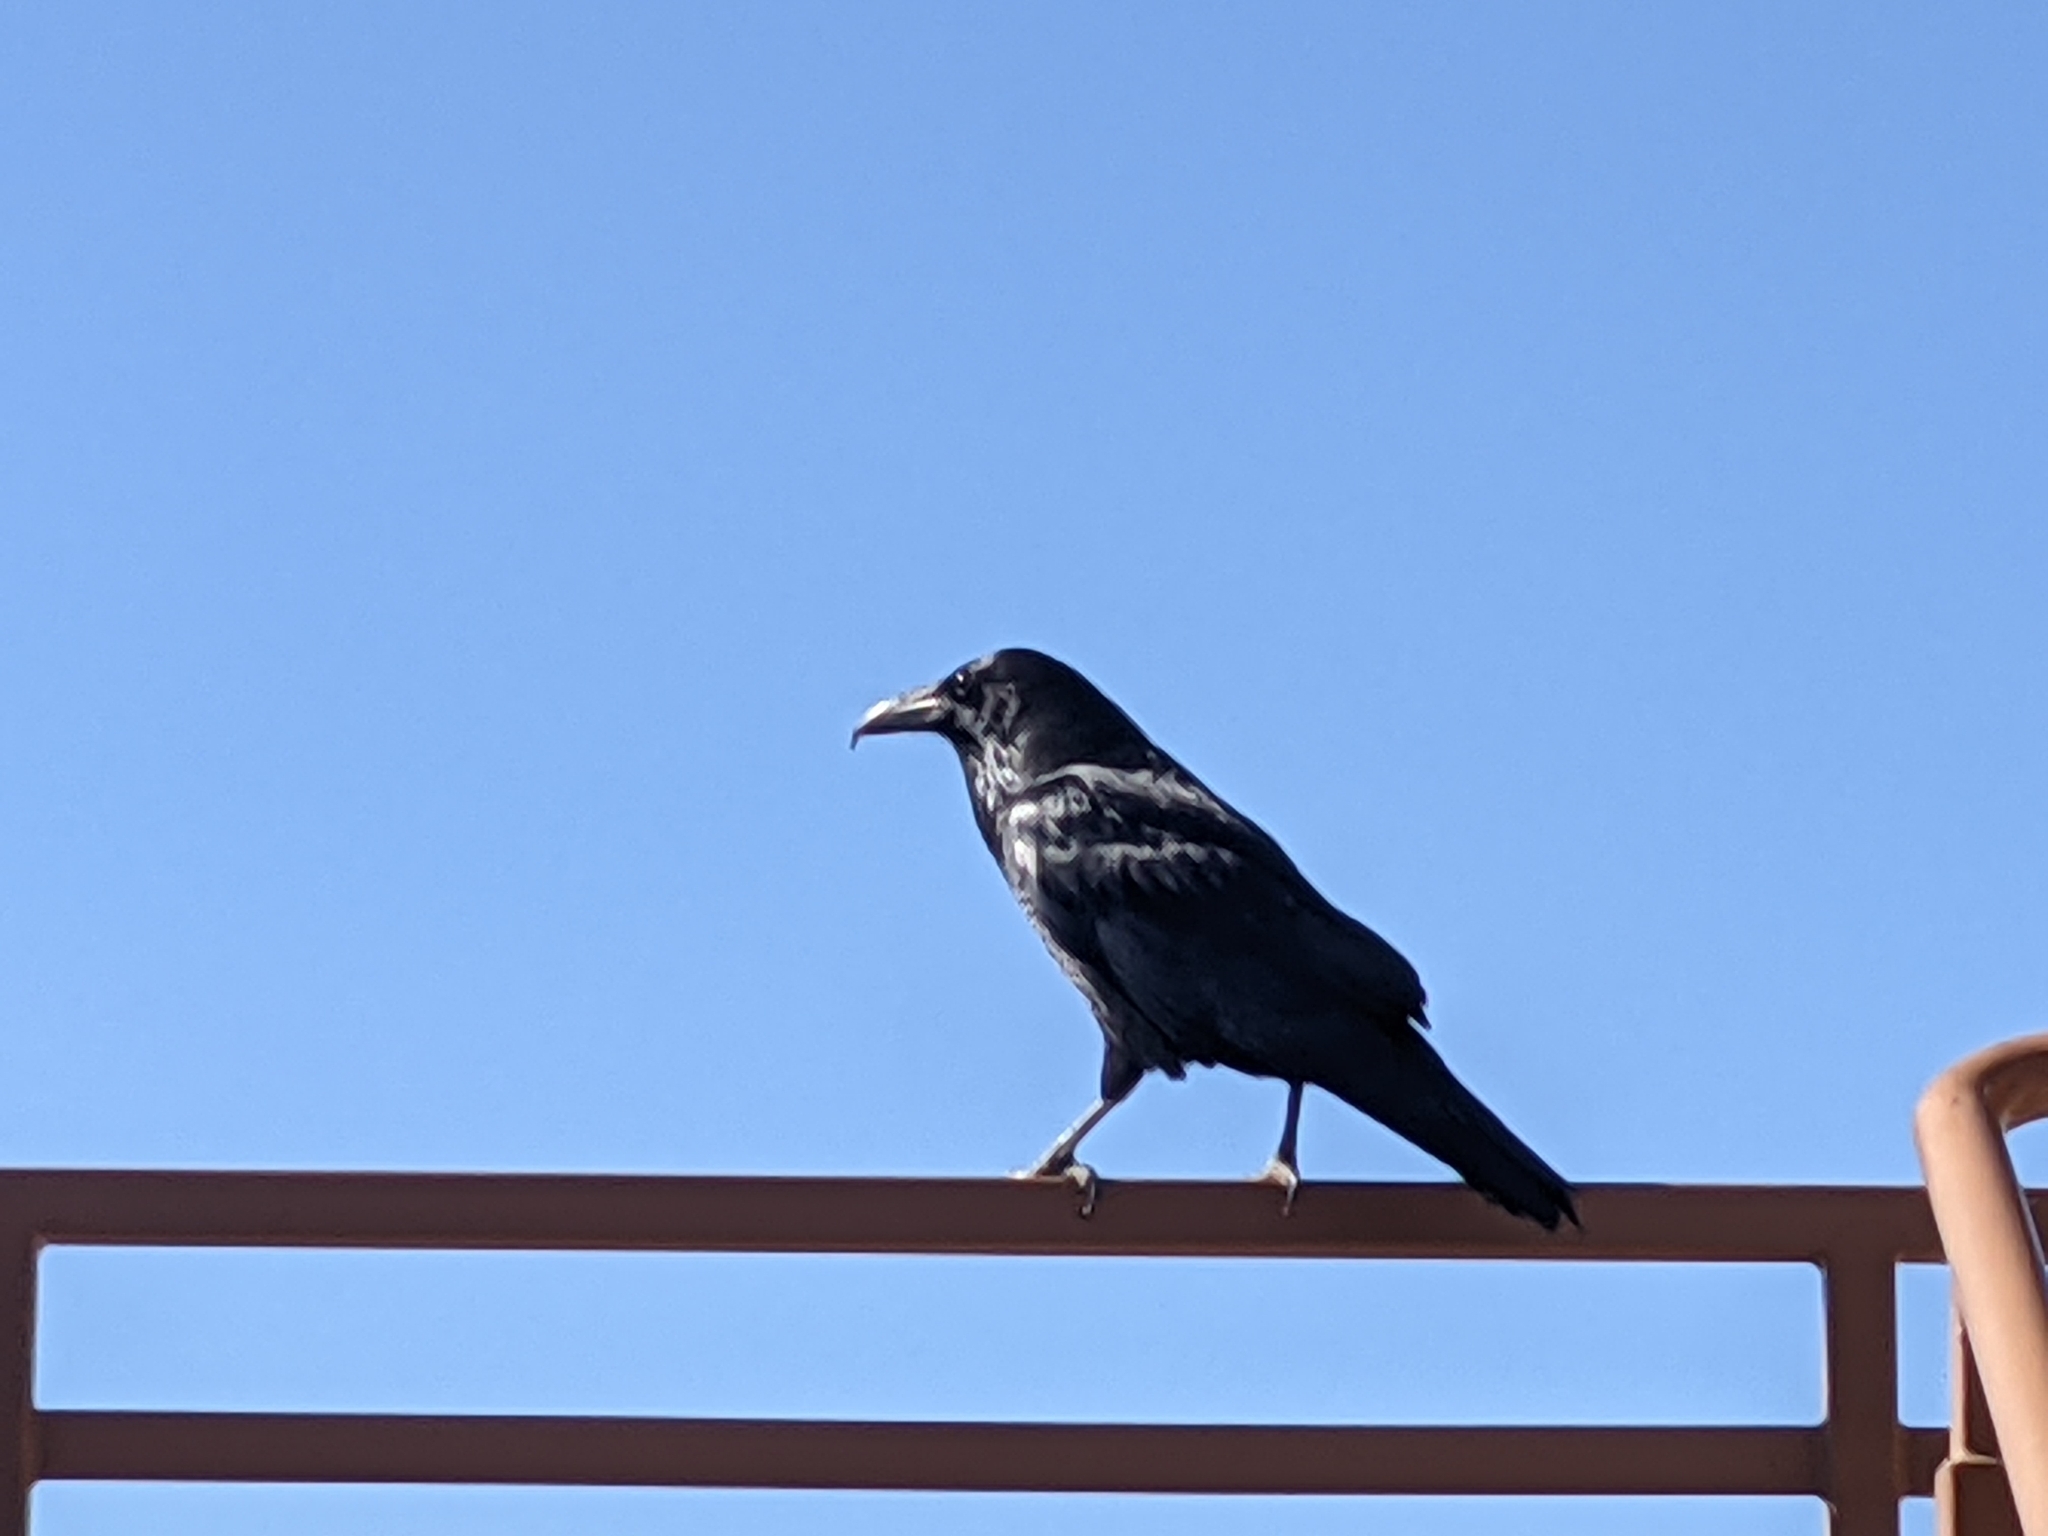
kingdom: Animalia
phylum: Chordata
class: Aves
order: Passeriformes
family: Corvidae
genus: Corvus
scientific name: Corvus corax
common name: Common raven
